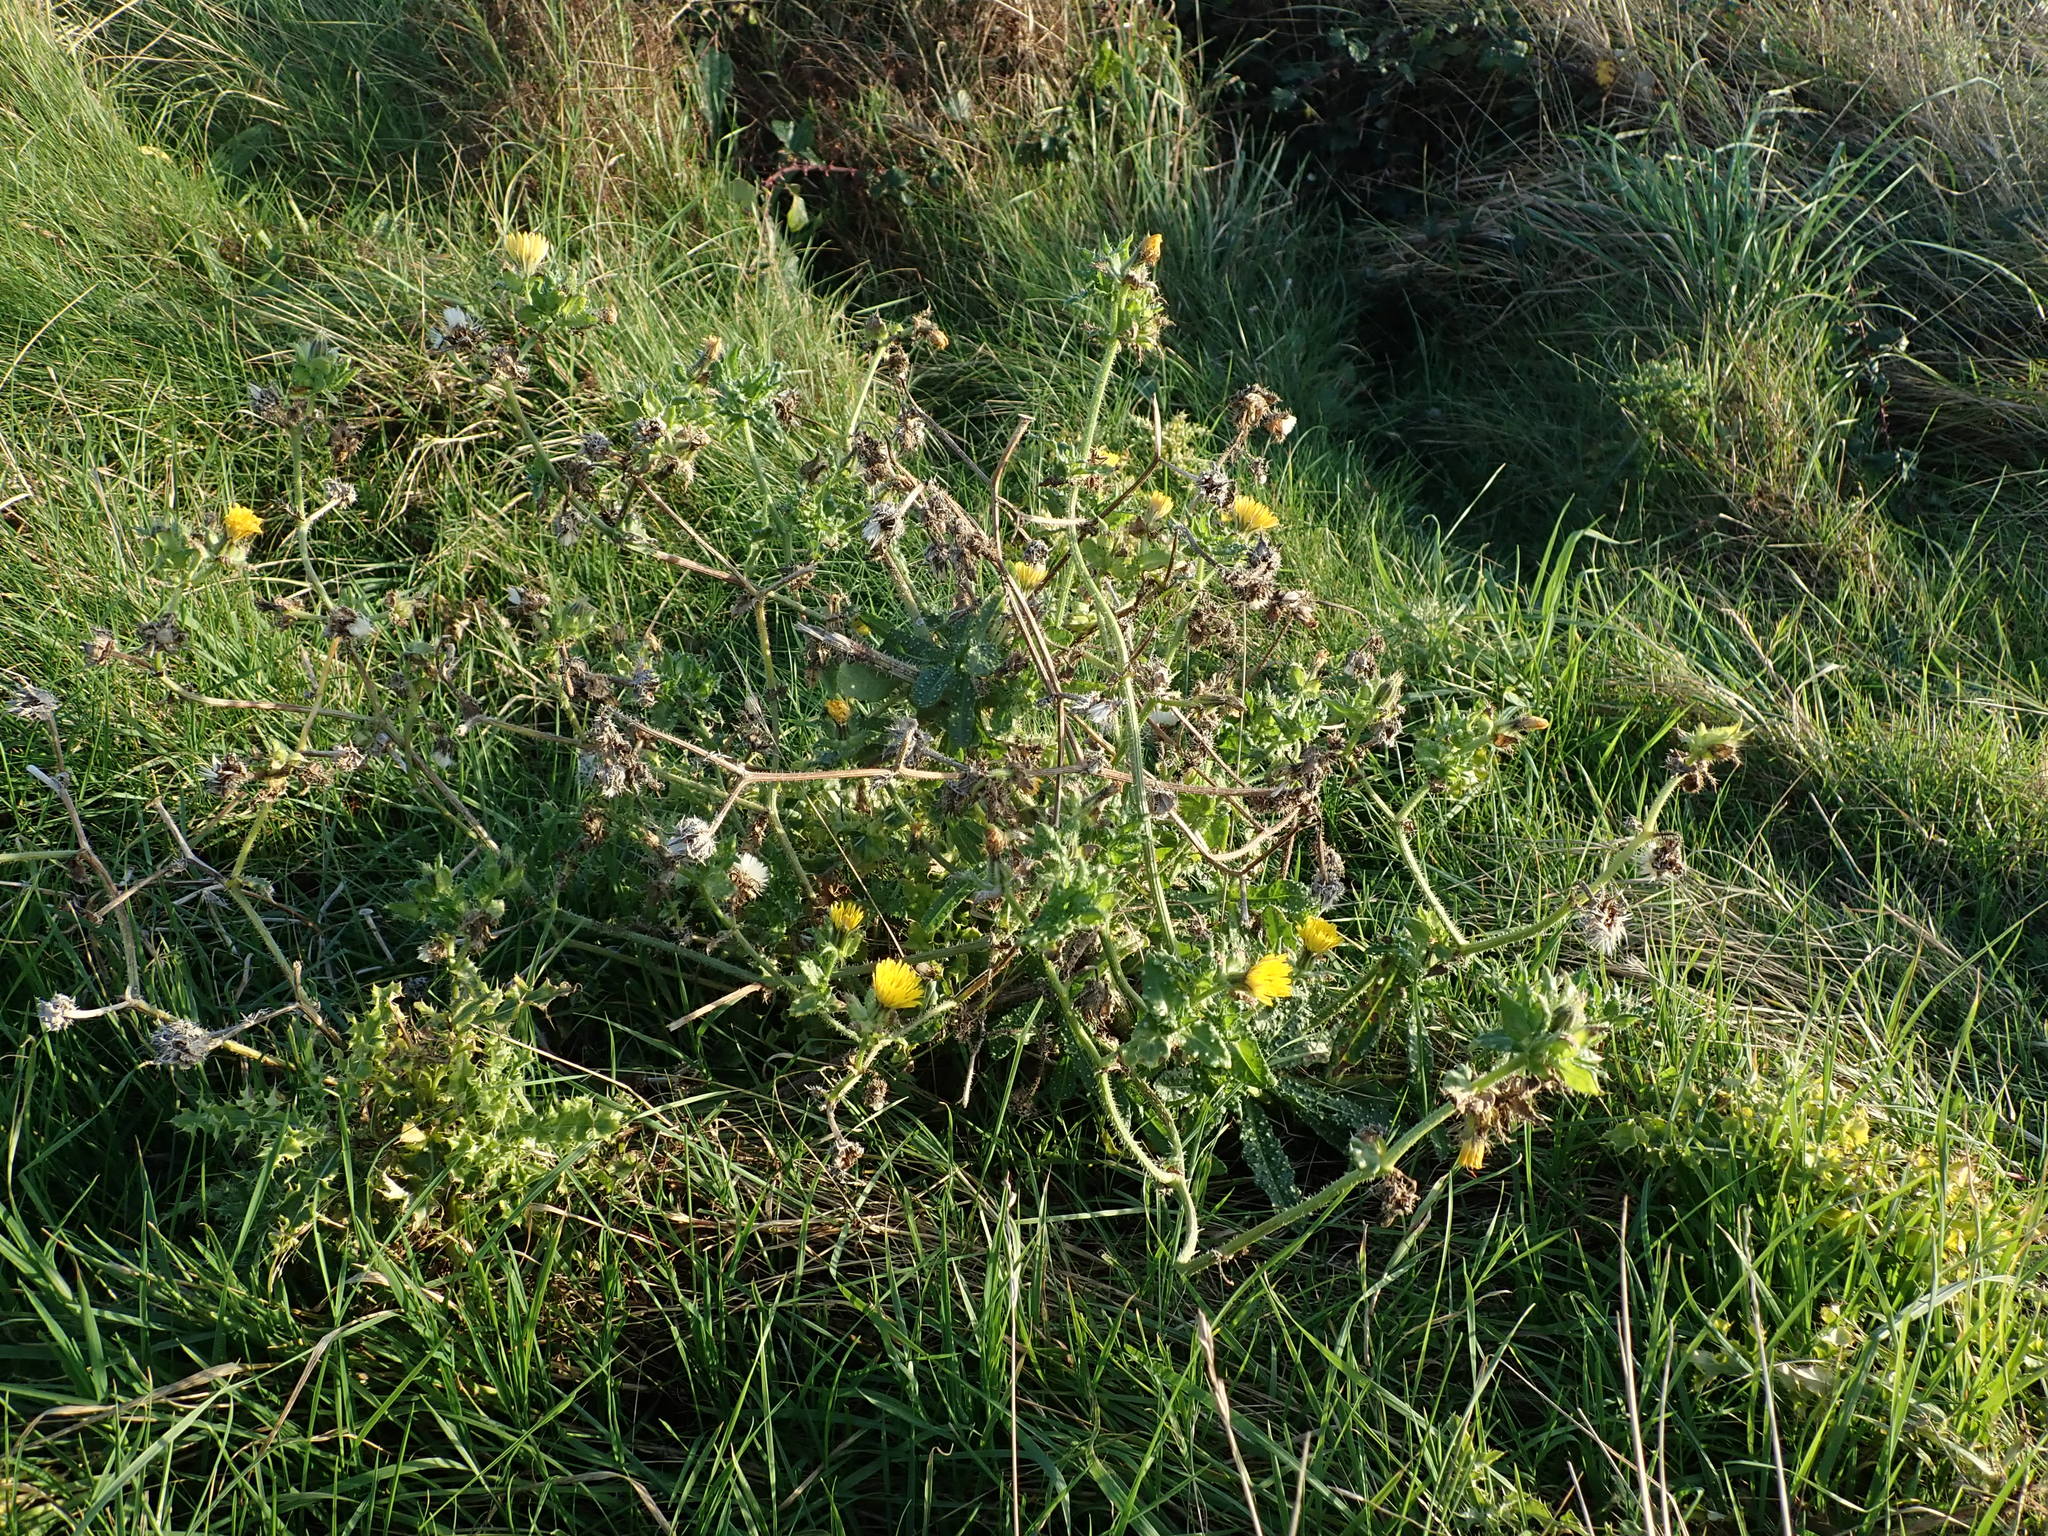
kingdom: Plantae
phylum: Tracheophyta
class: Magnoliopsida
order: Asterales
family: Asteraceae
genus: Helminthotheca
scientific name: Helminthotheca echioides
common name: Ox-tongue
